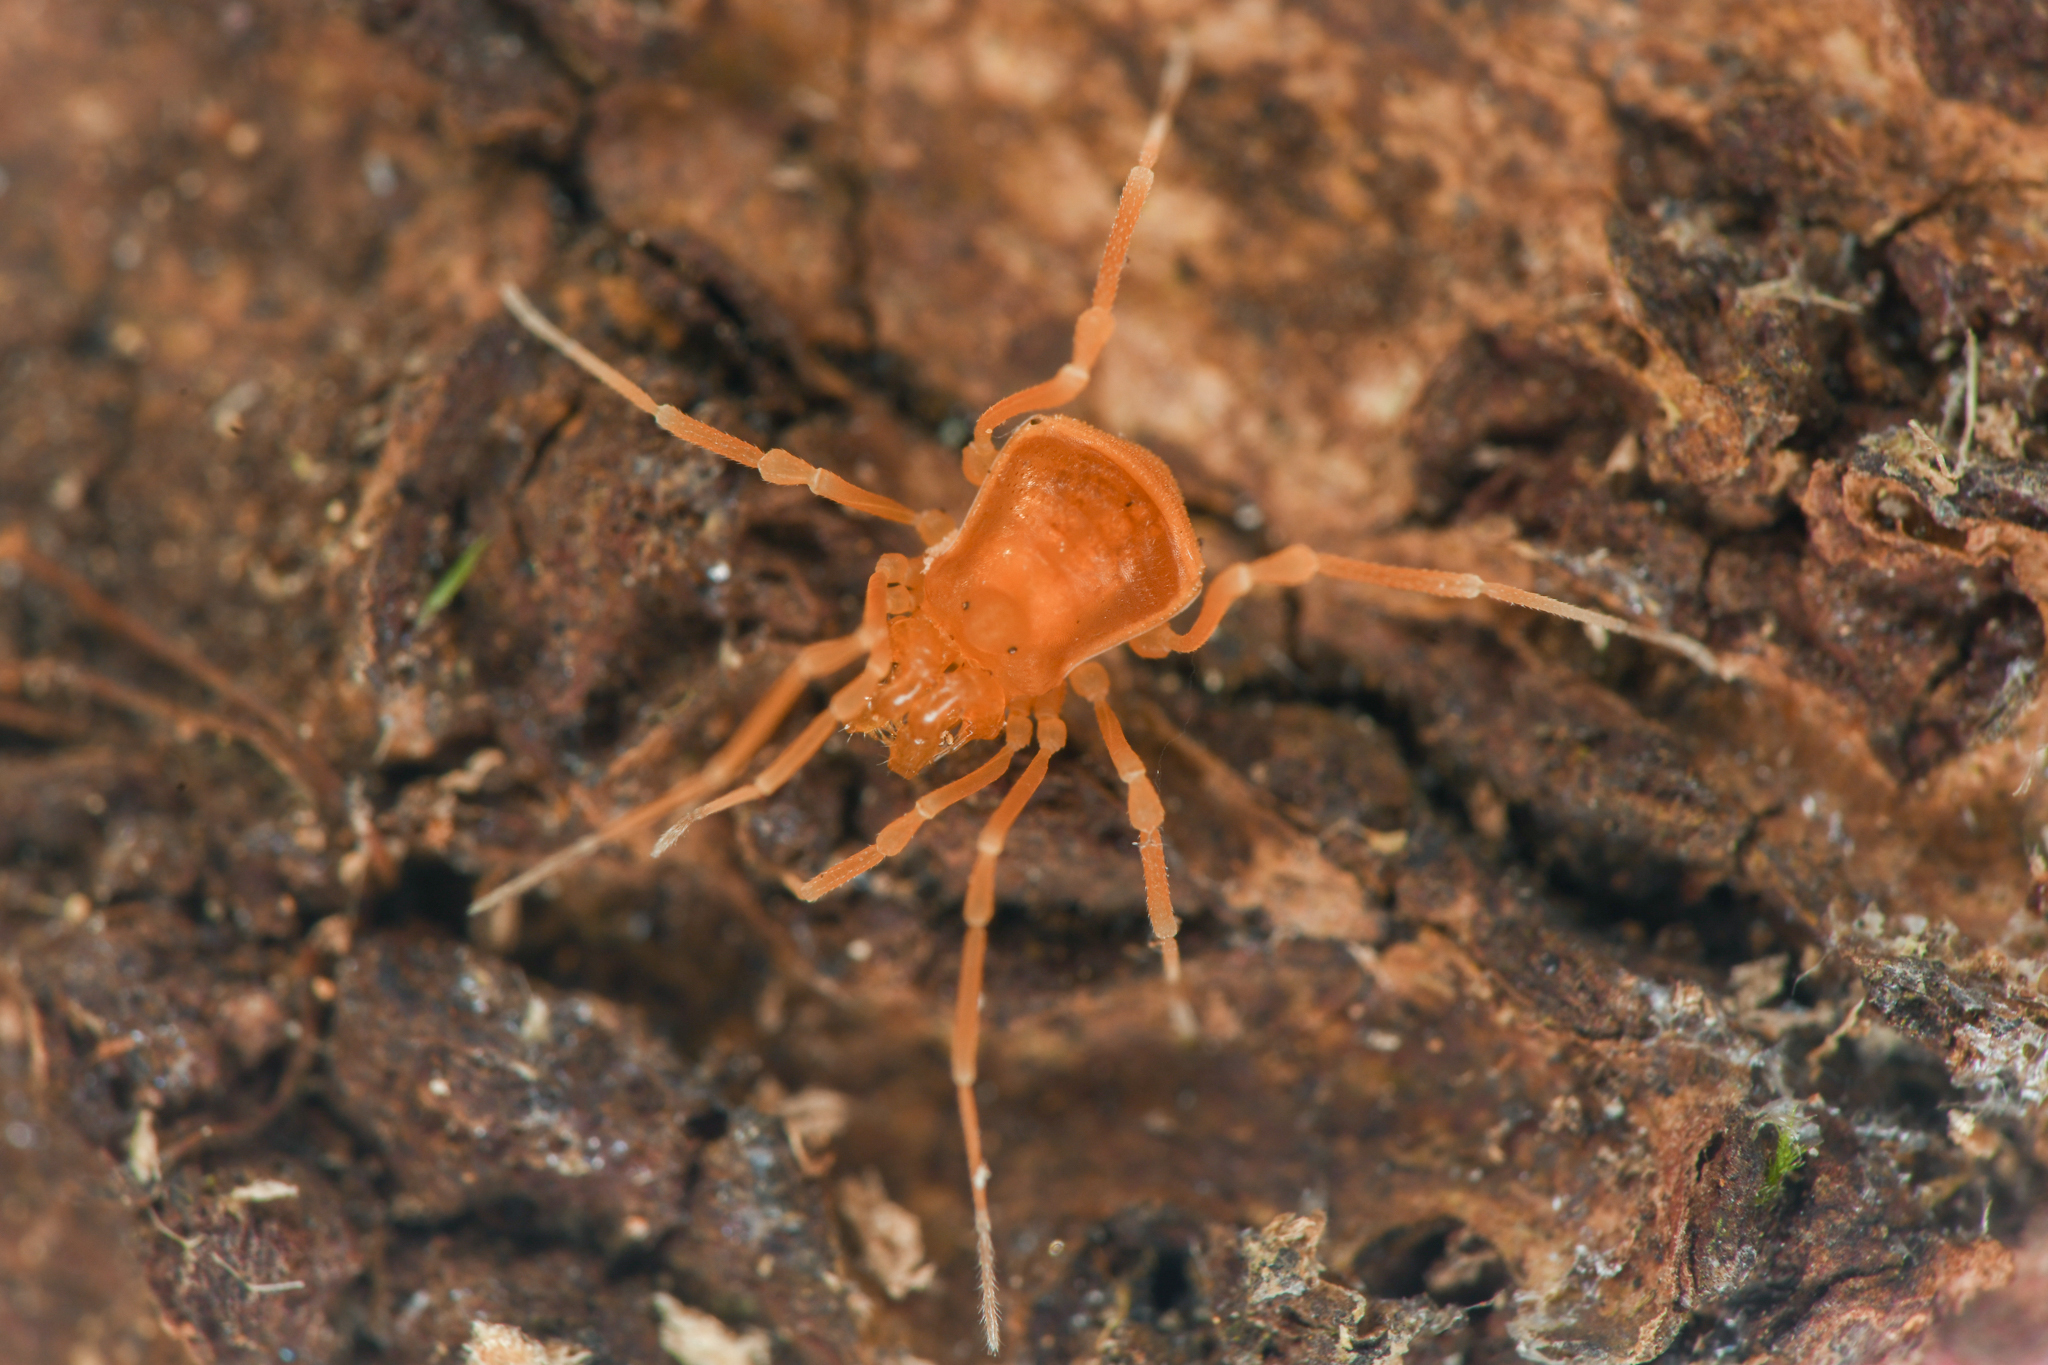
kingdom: Animalia
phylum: Arthropoda
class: Arachnida
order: Opiliones
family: Phalangodidae
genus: Megacina
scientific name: Megacina cockerelli
